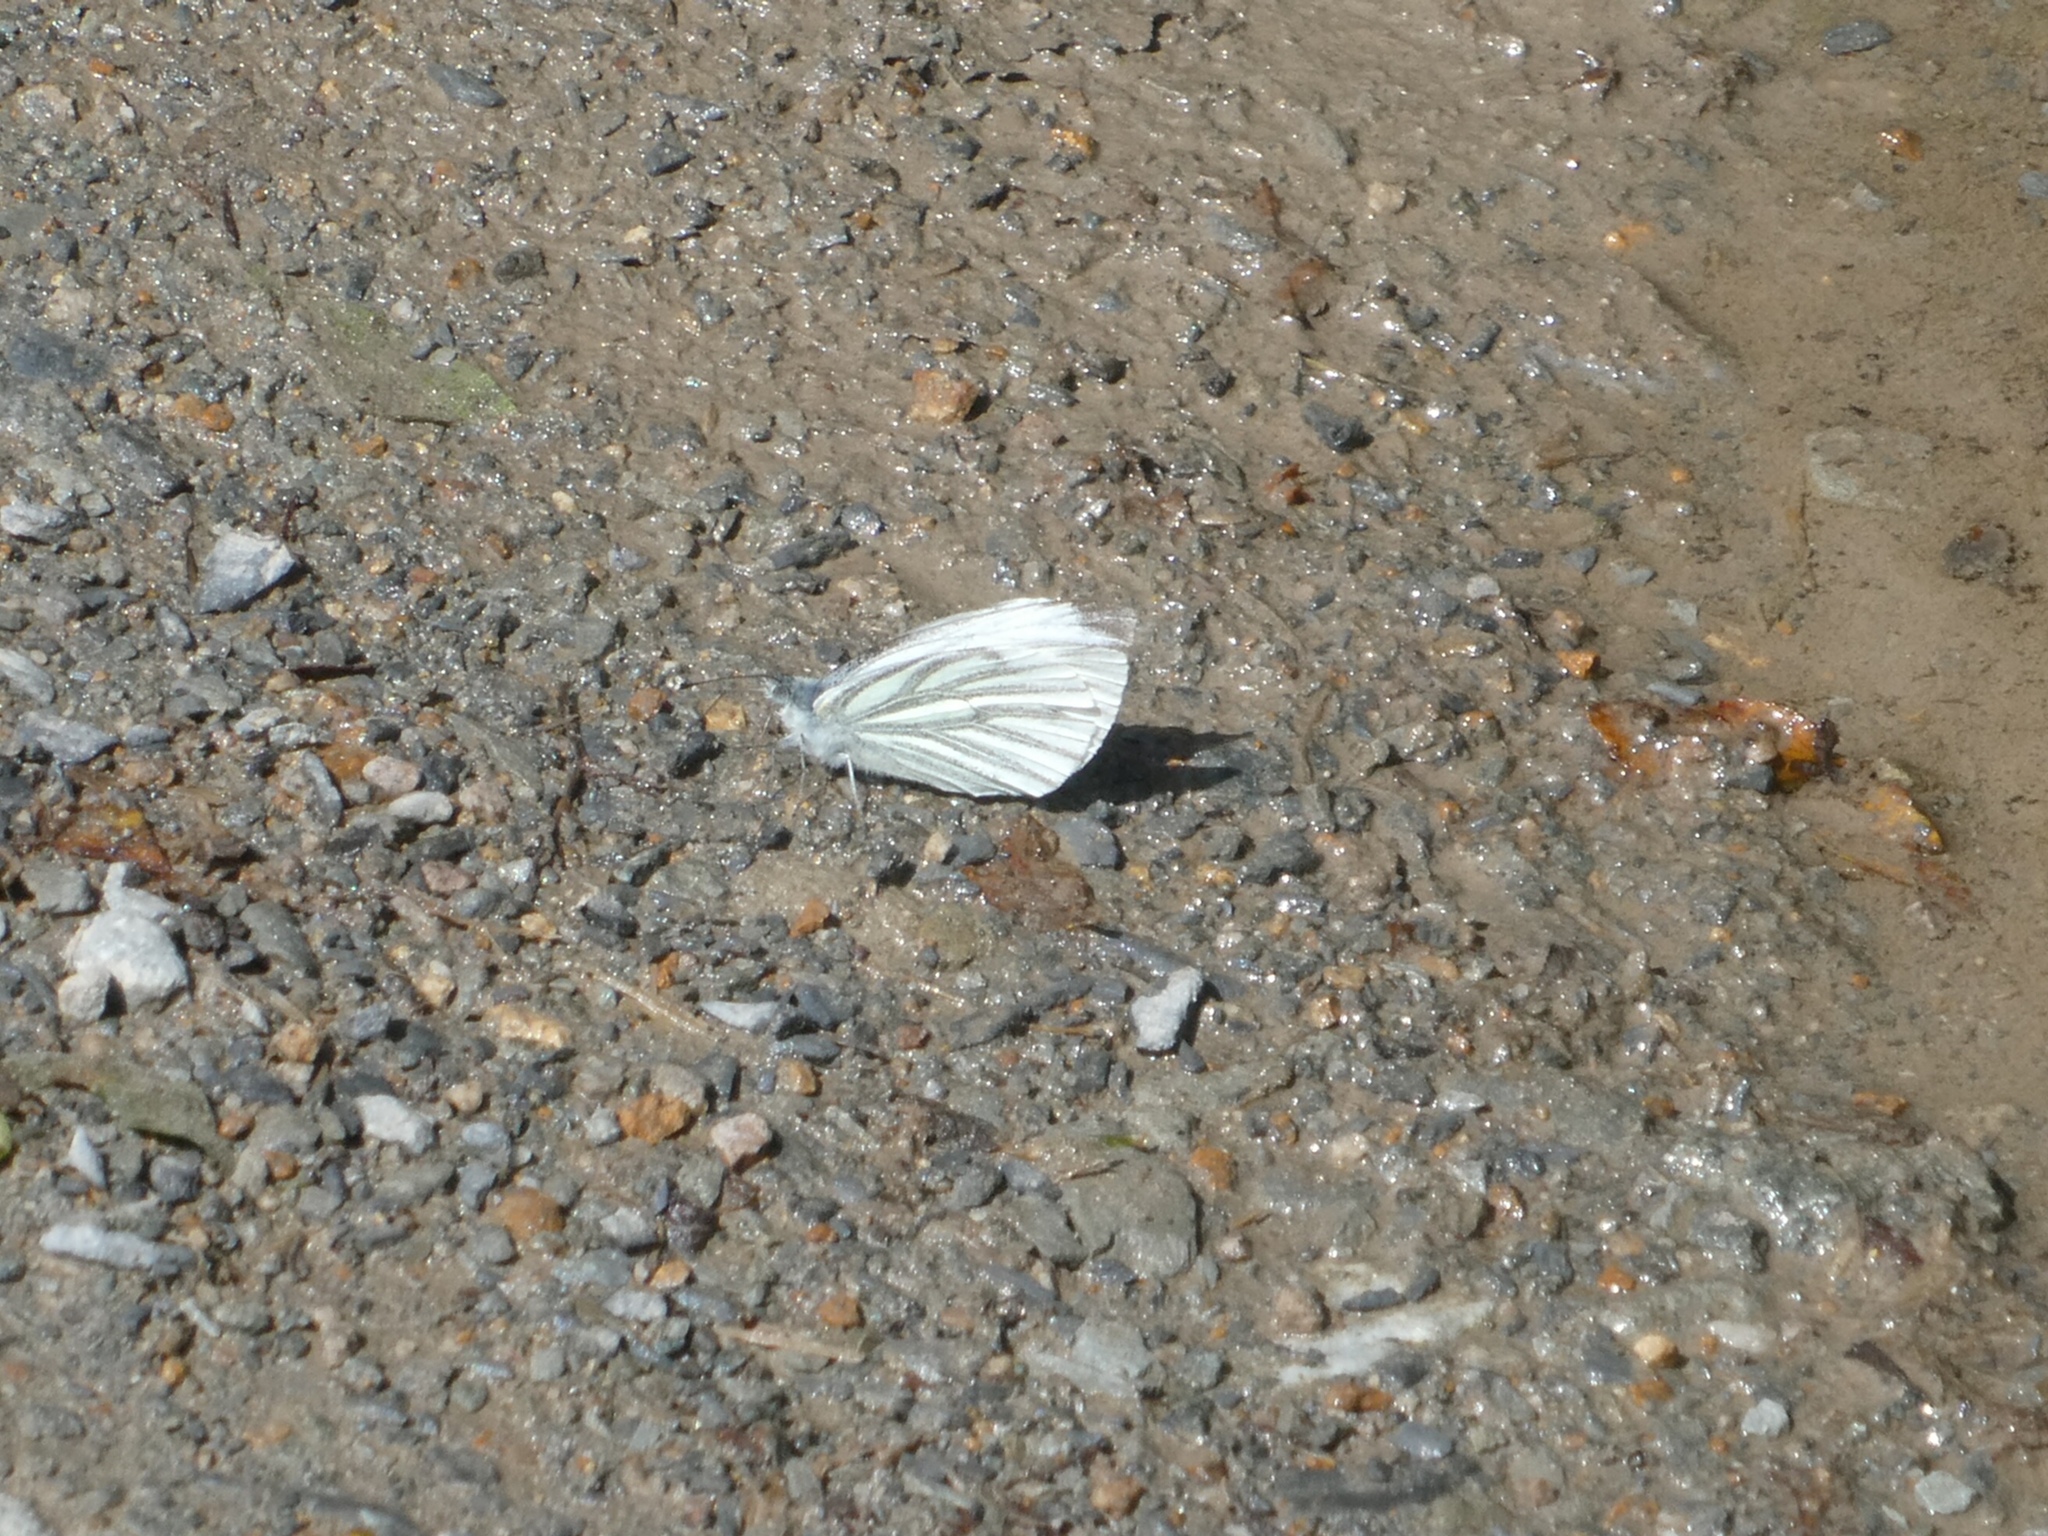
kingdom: Animalia
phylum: Arthropoda
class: Insecta
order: Lepidoptera
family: Pieridae
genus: Pieris
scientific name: Pieris napi
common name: Green-veined white
